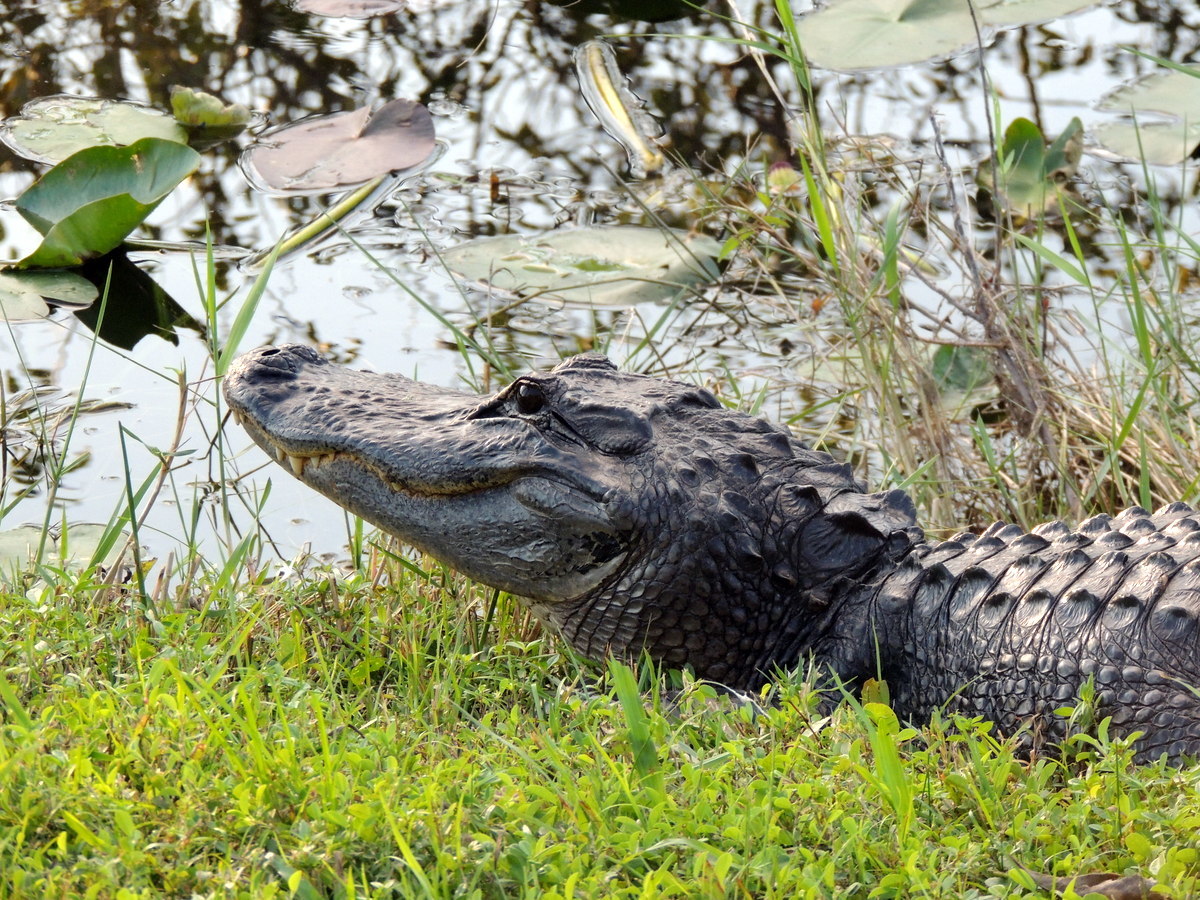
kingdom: Animalia
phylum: Chordata
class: Crocodylia
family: Alligatoridae
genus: Alligator
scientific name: Alligator mississippiensis
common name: American alligator
